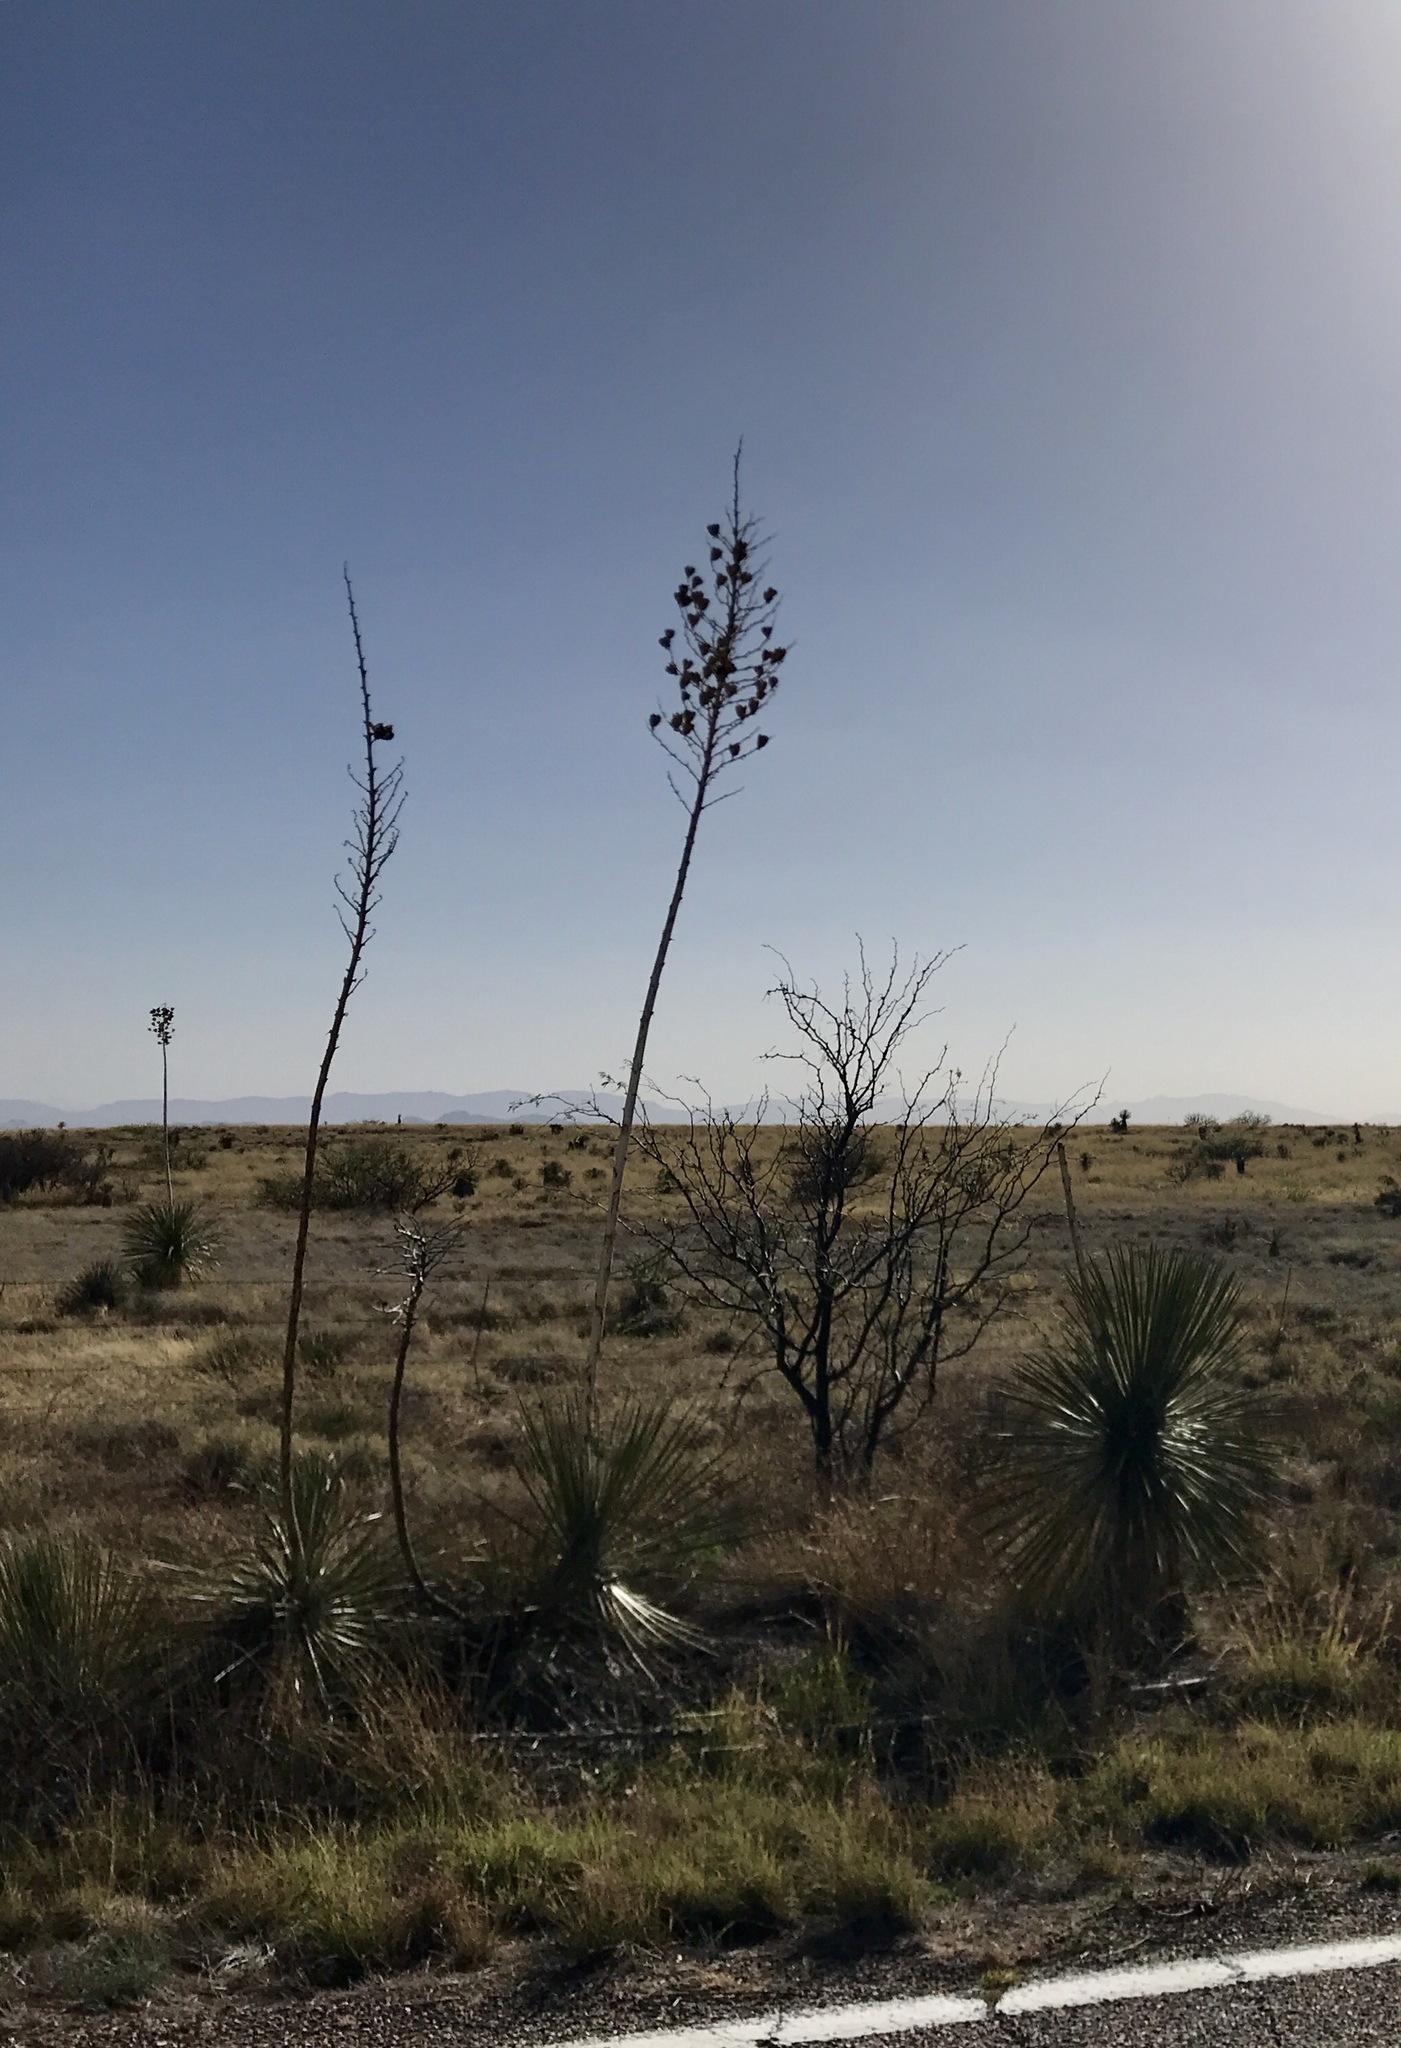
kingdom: Plantae
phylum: Tracheophyta
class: Liliopsida
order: Asparagales
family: Asparagaceae
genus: Yucca
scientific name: Yucca elata
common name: Palmella
